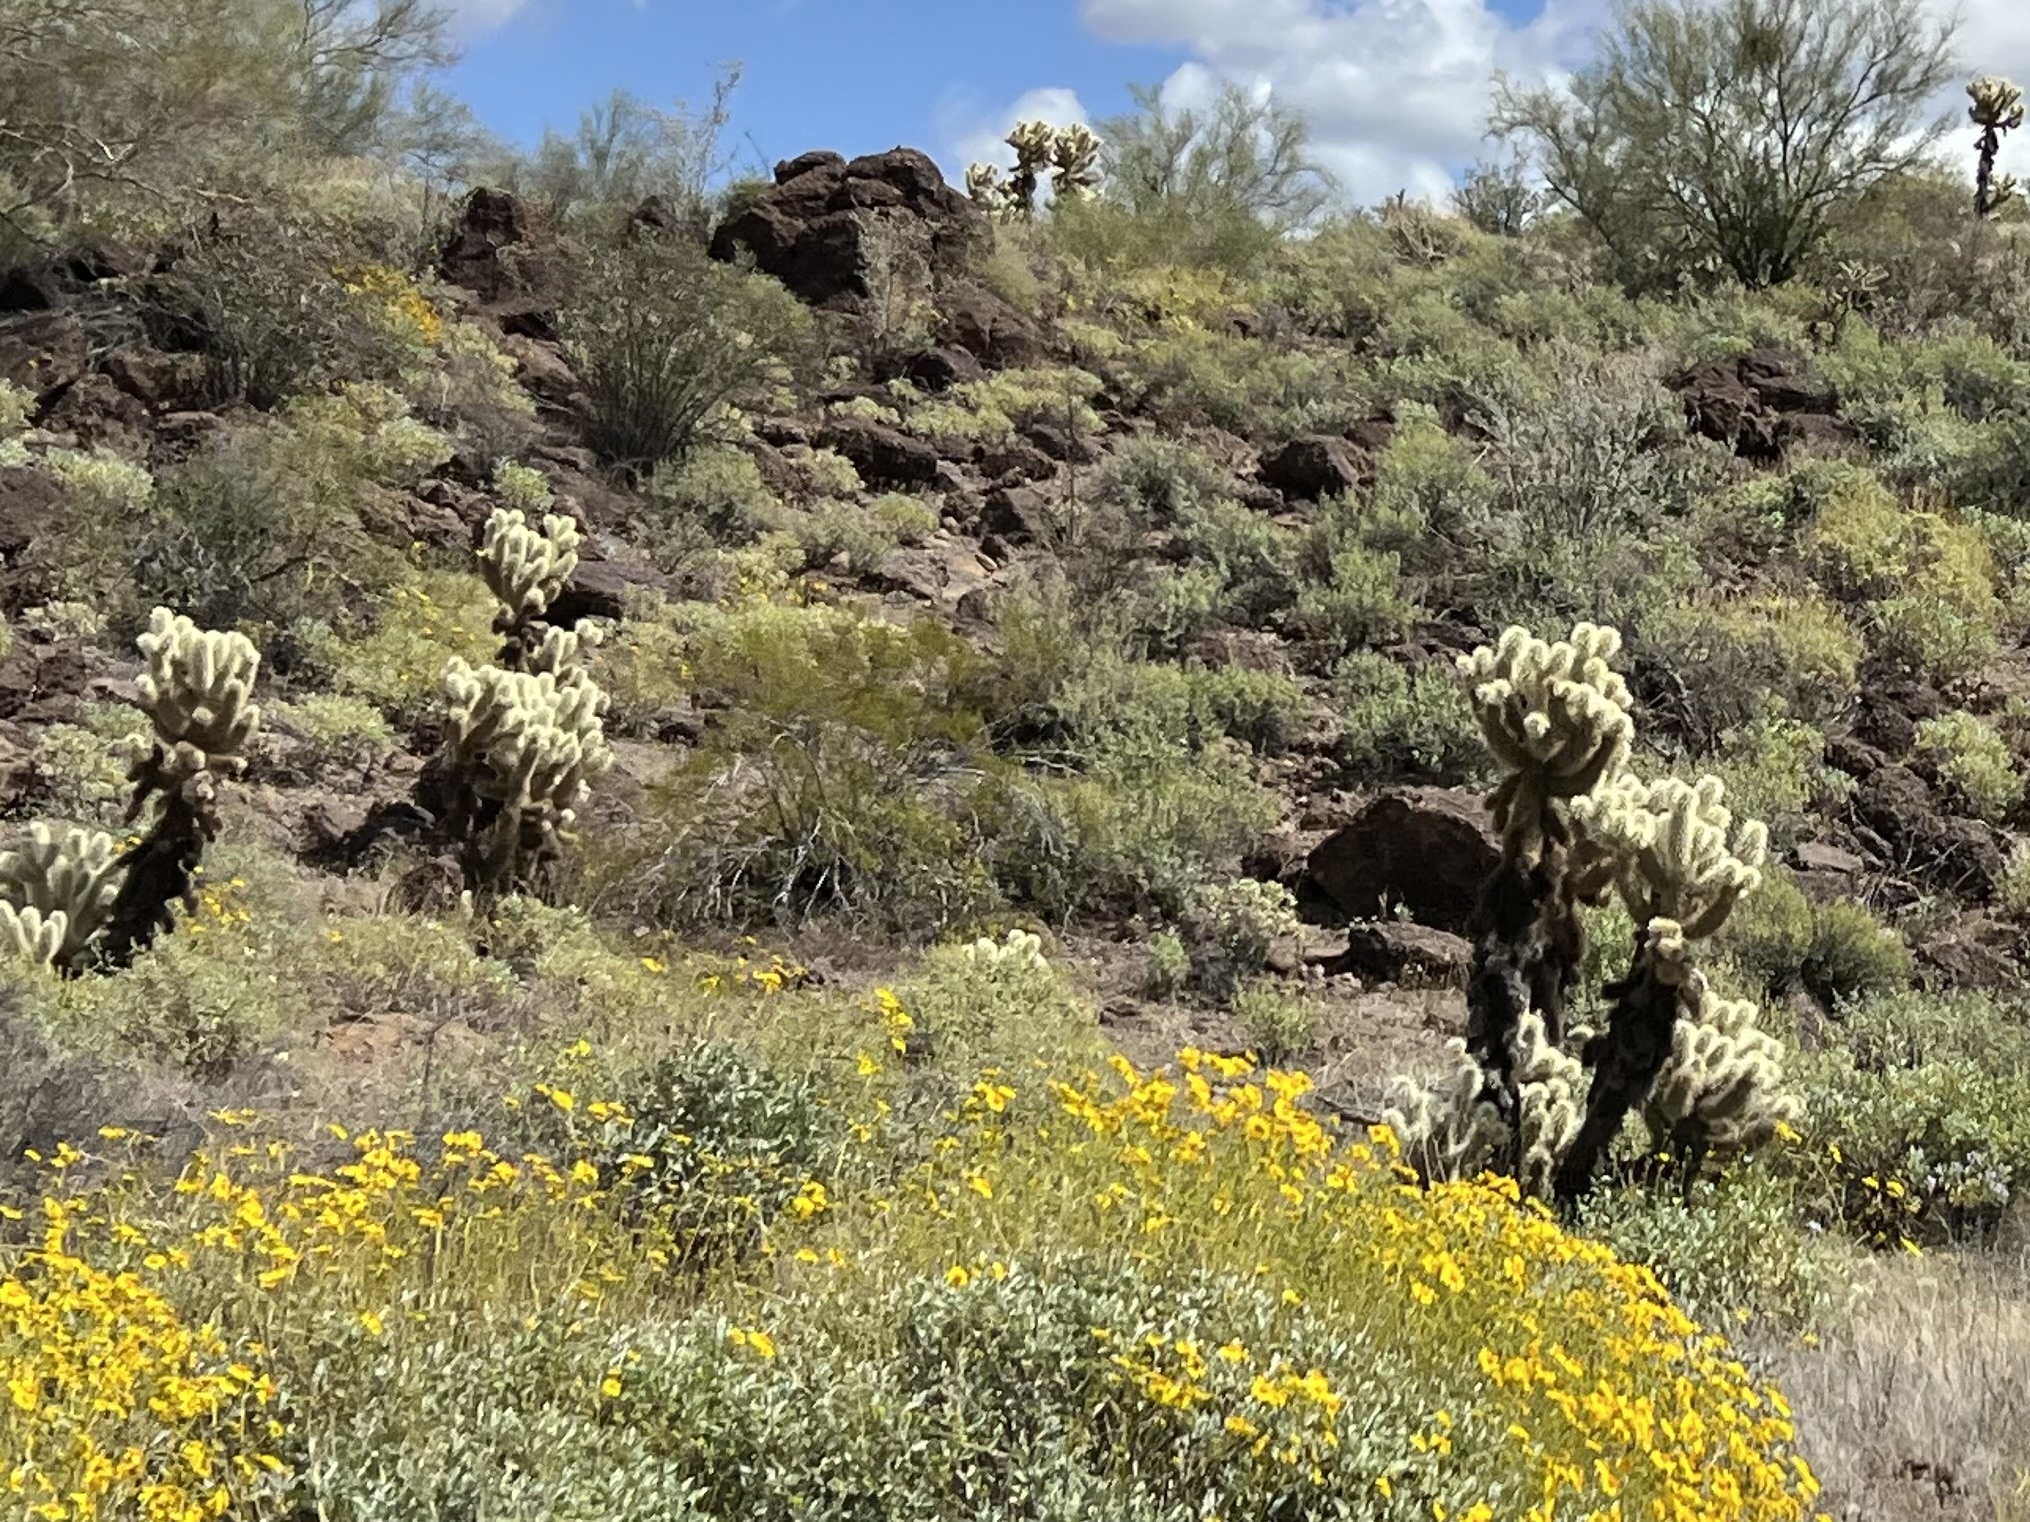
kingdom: Plantae
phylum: Tracheophyta
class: Magnoliopsida
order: Caryophyllales
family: Cactaceae
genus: Cylindropuntia
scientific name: Cylindropuntia fosbergii
